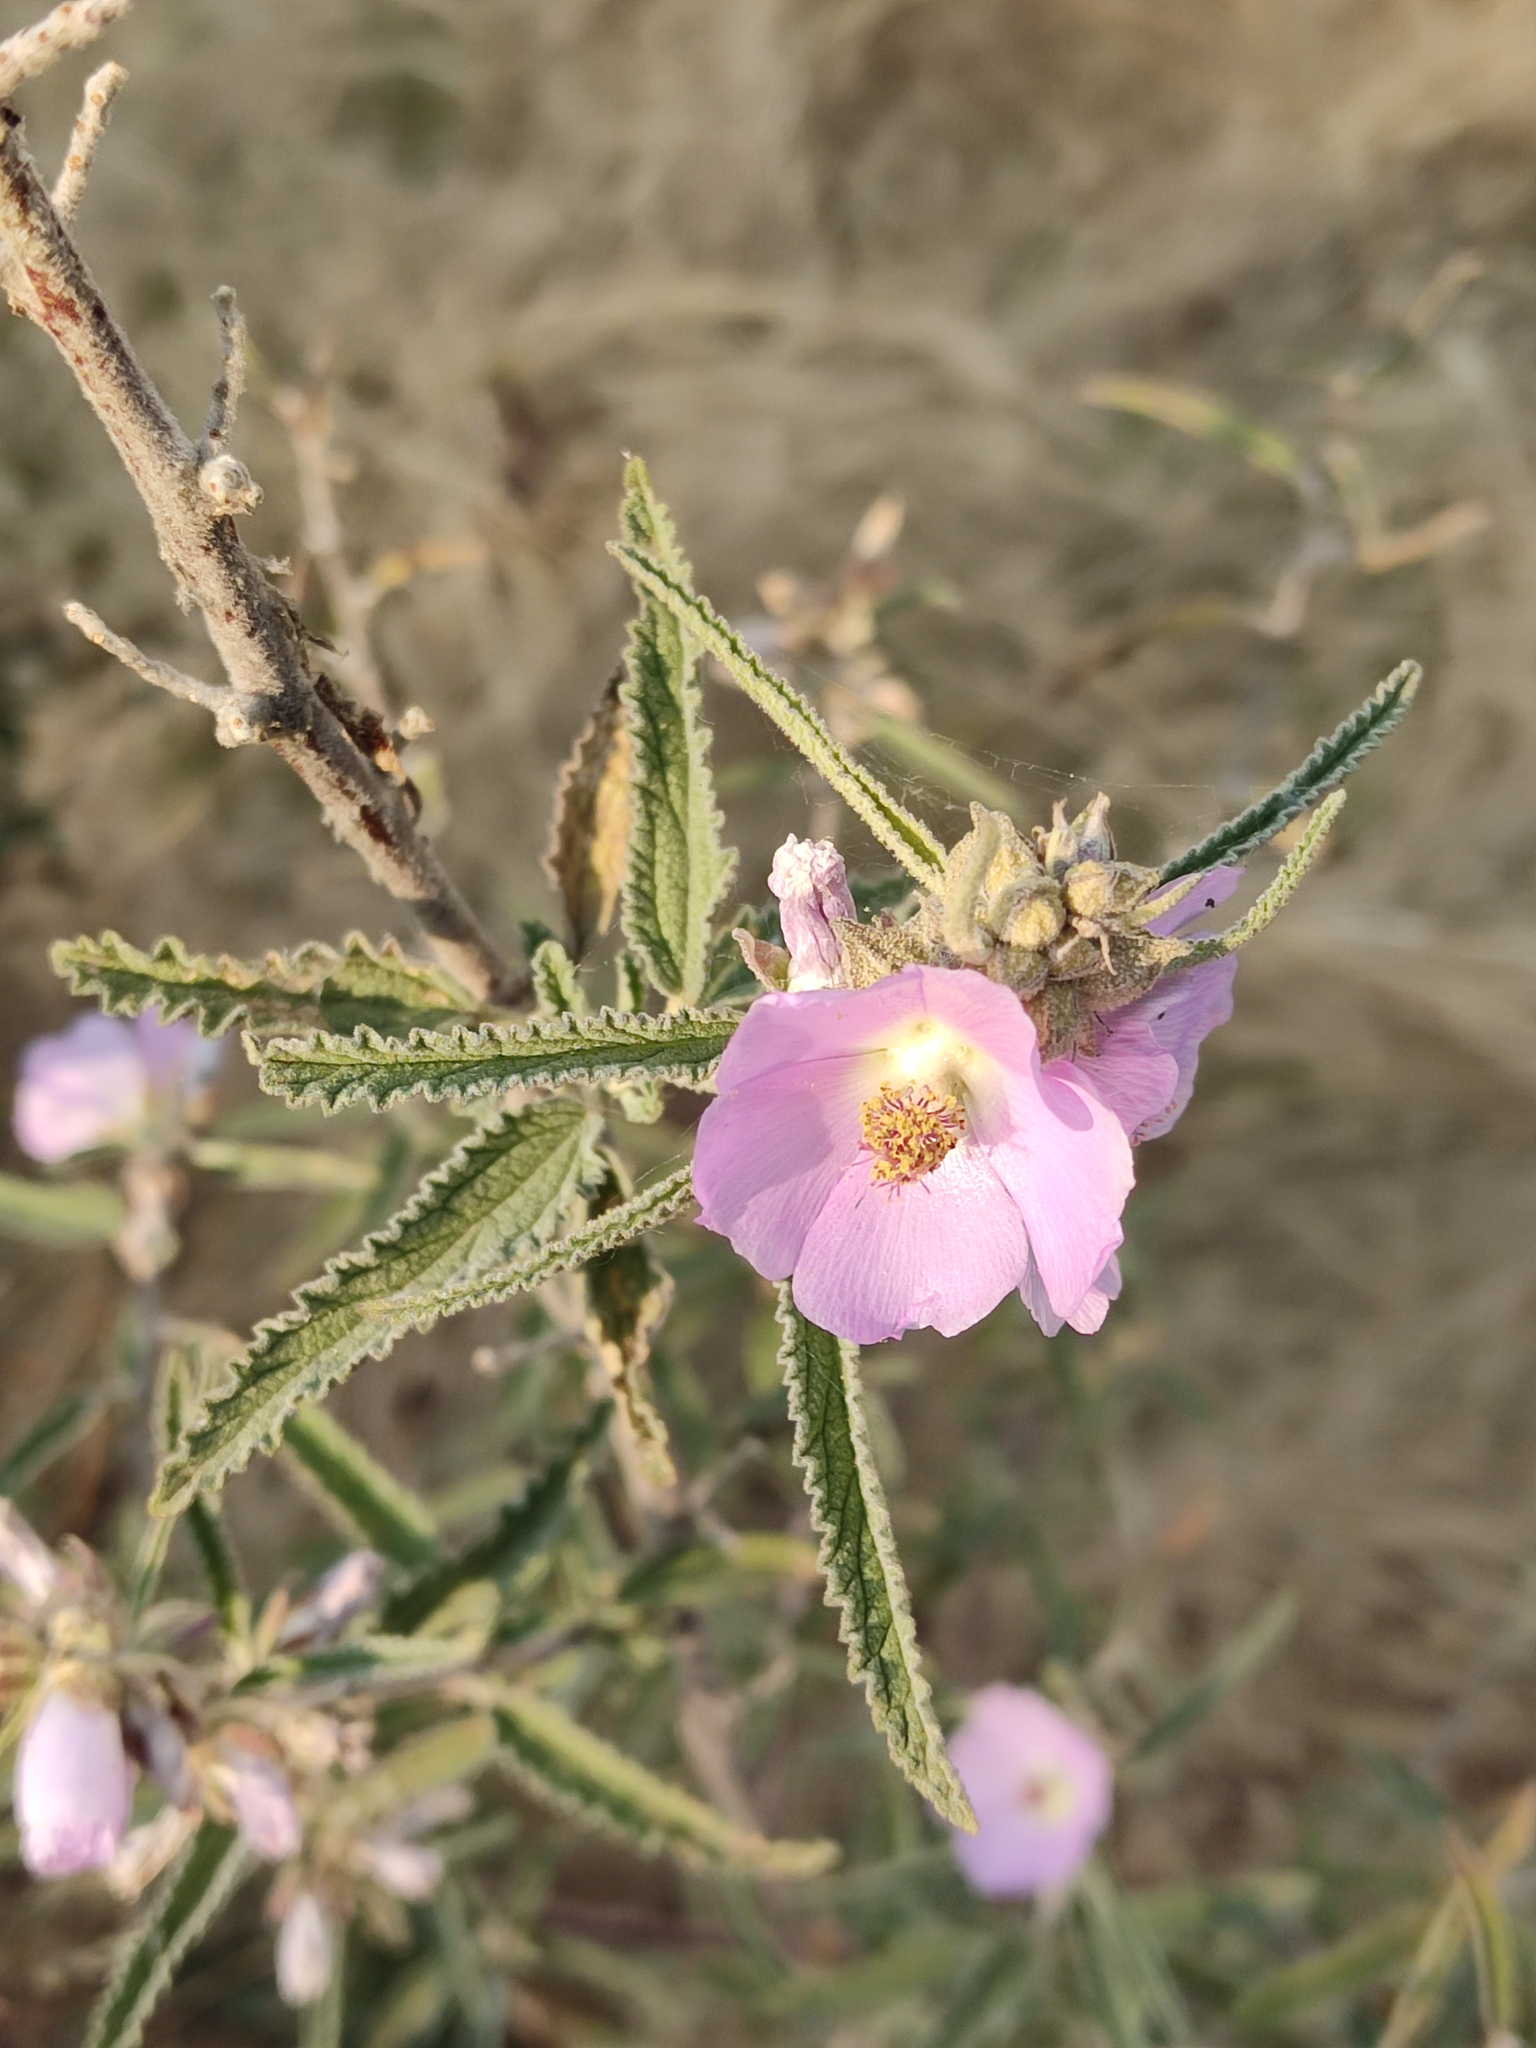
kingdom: Plantae
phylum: Tracheophyta
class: Magnoliopsida
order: Malvales
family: Malvaceae
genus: Sphaeralcea
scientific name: Sphaeralcea angustifolia
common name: Copper globe-mallow
